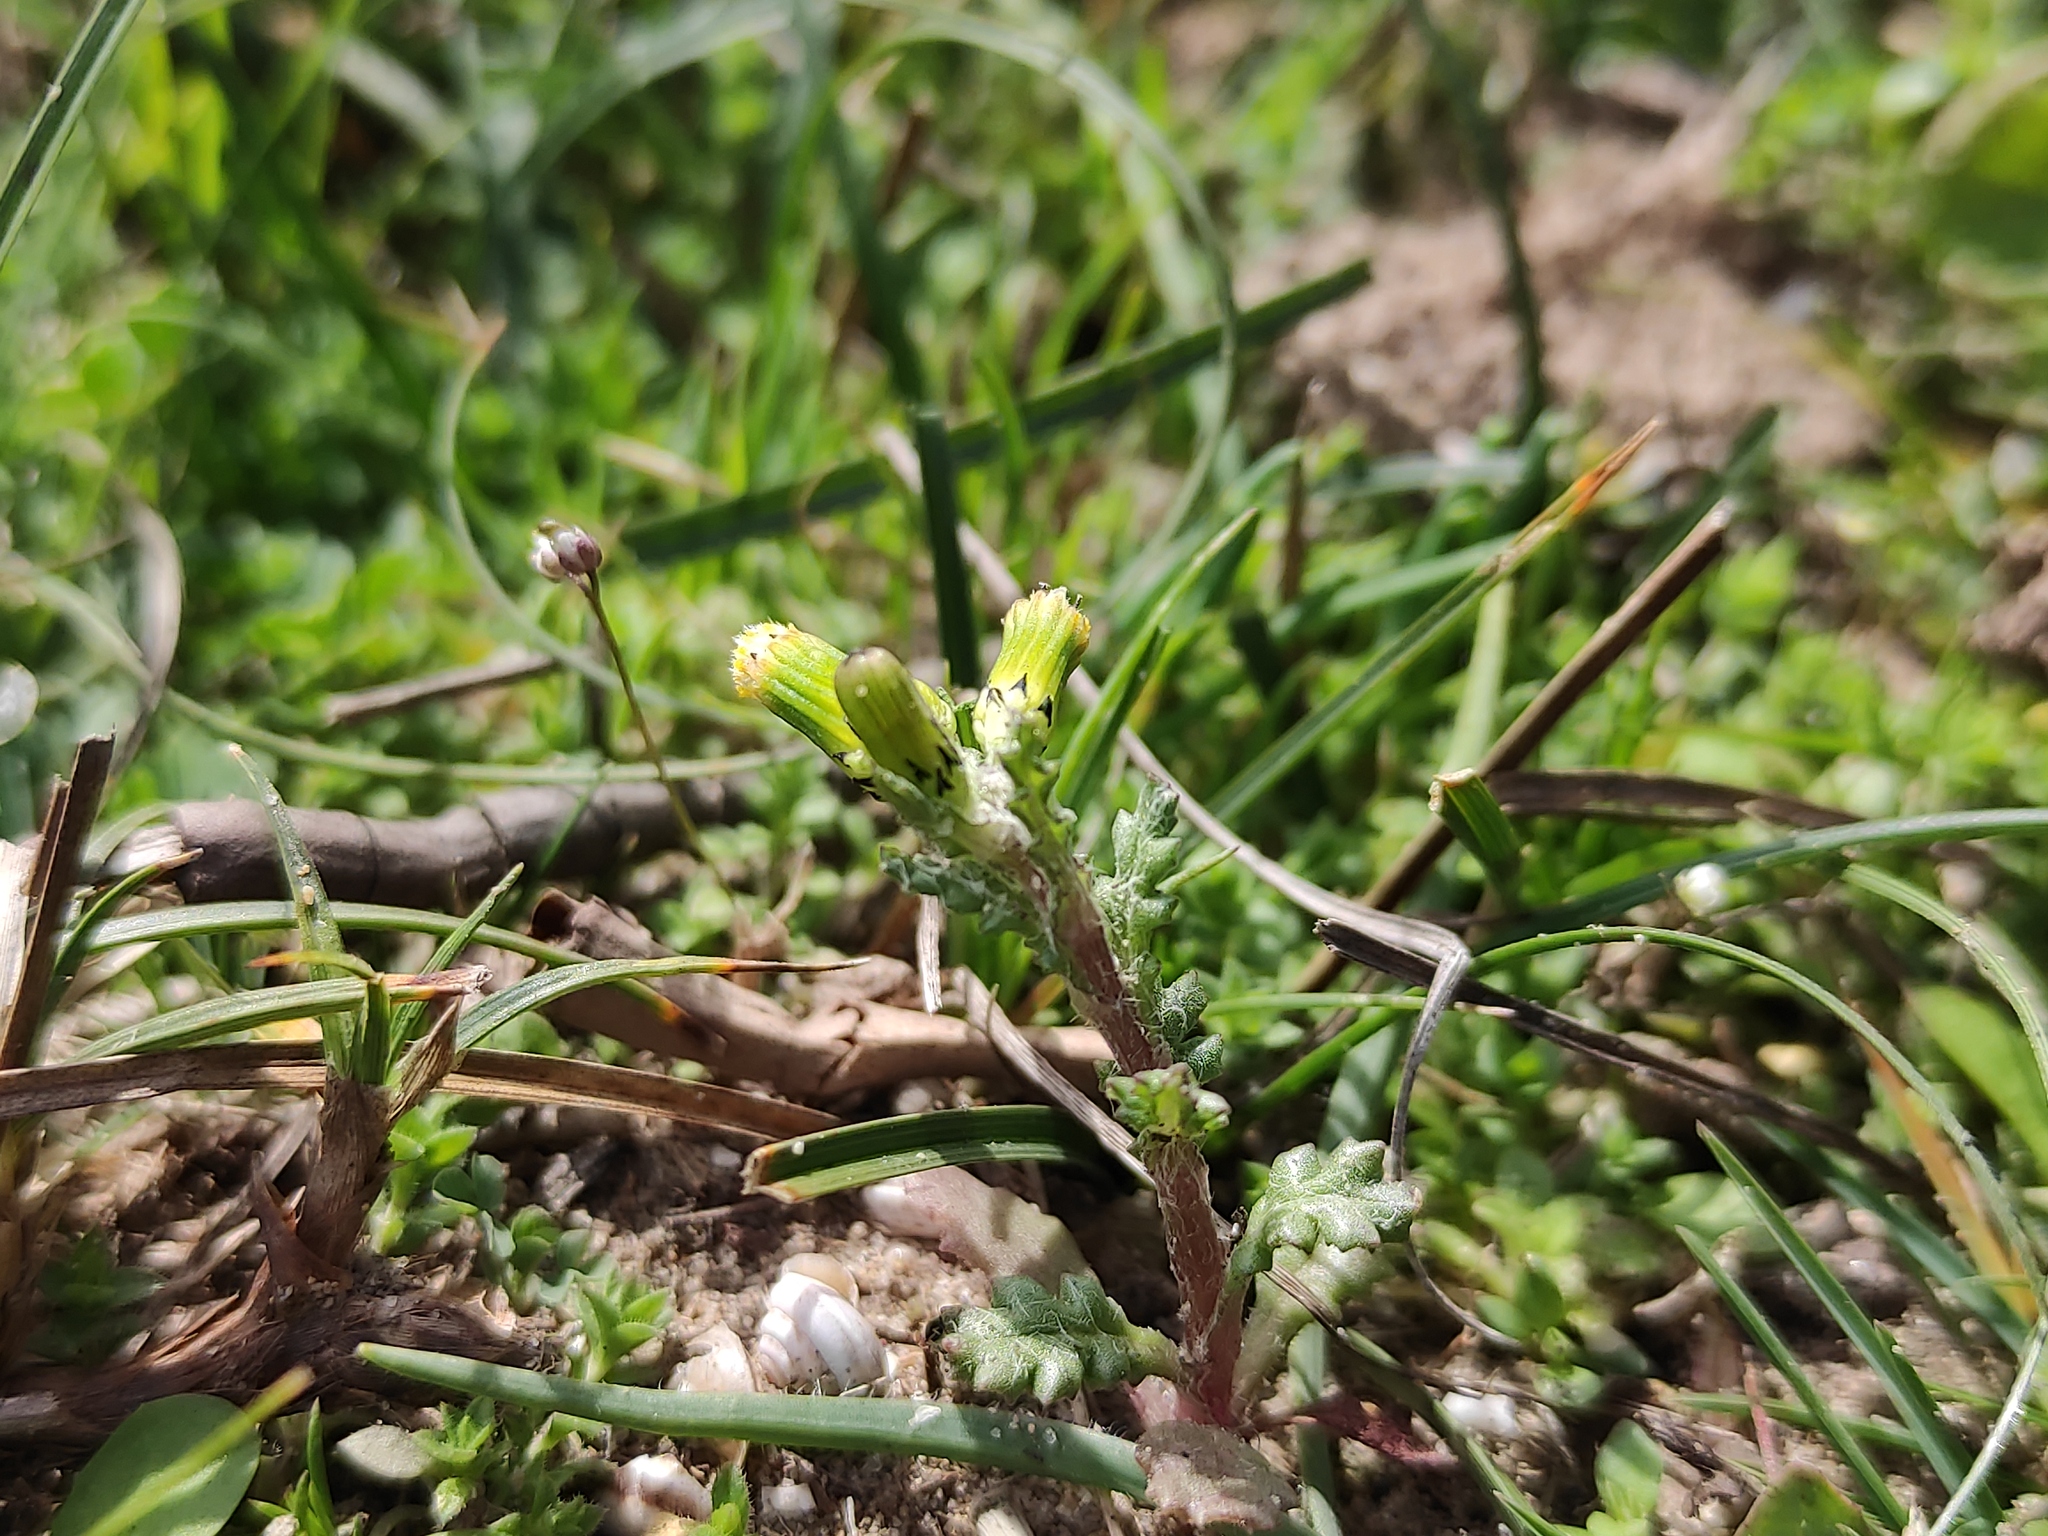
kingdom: Plantae
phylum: Tracheophyta
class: Magnoliopsida
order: Asterales
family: Asteraceae
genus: Senecio
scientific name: Senecio vulgaris
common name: Old-man-in-the-spring
